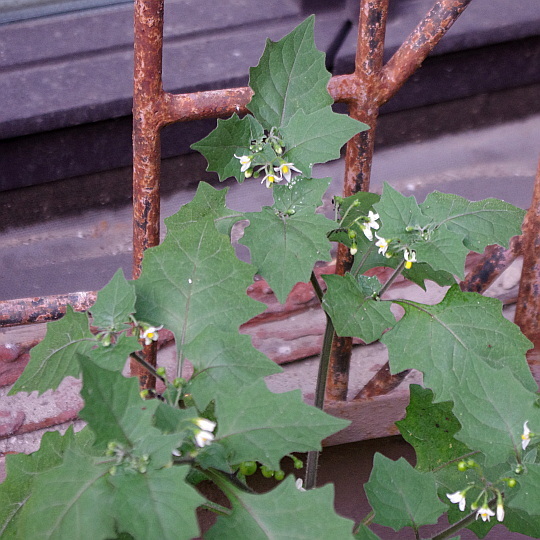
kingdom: Plantae
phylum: Tracheophyta
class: Magnoliopsida
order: Solanales
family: Solanaceae
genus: Solanum
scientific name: Solanum nigrum
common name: Black nightshade
